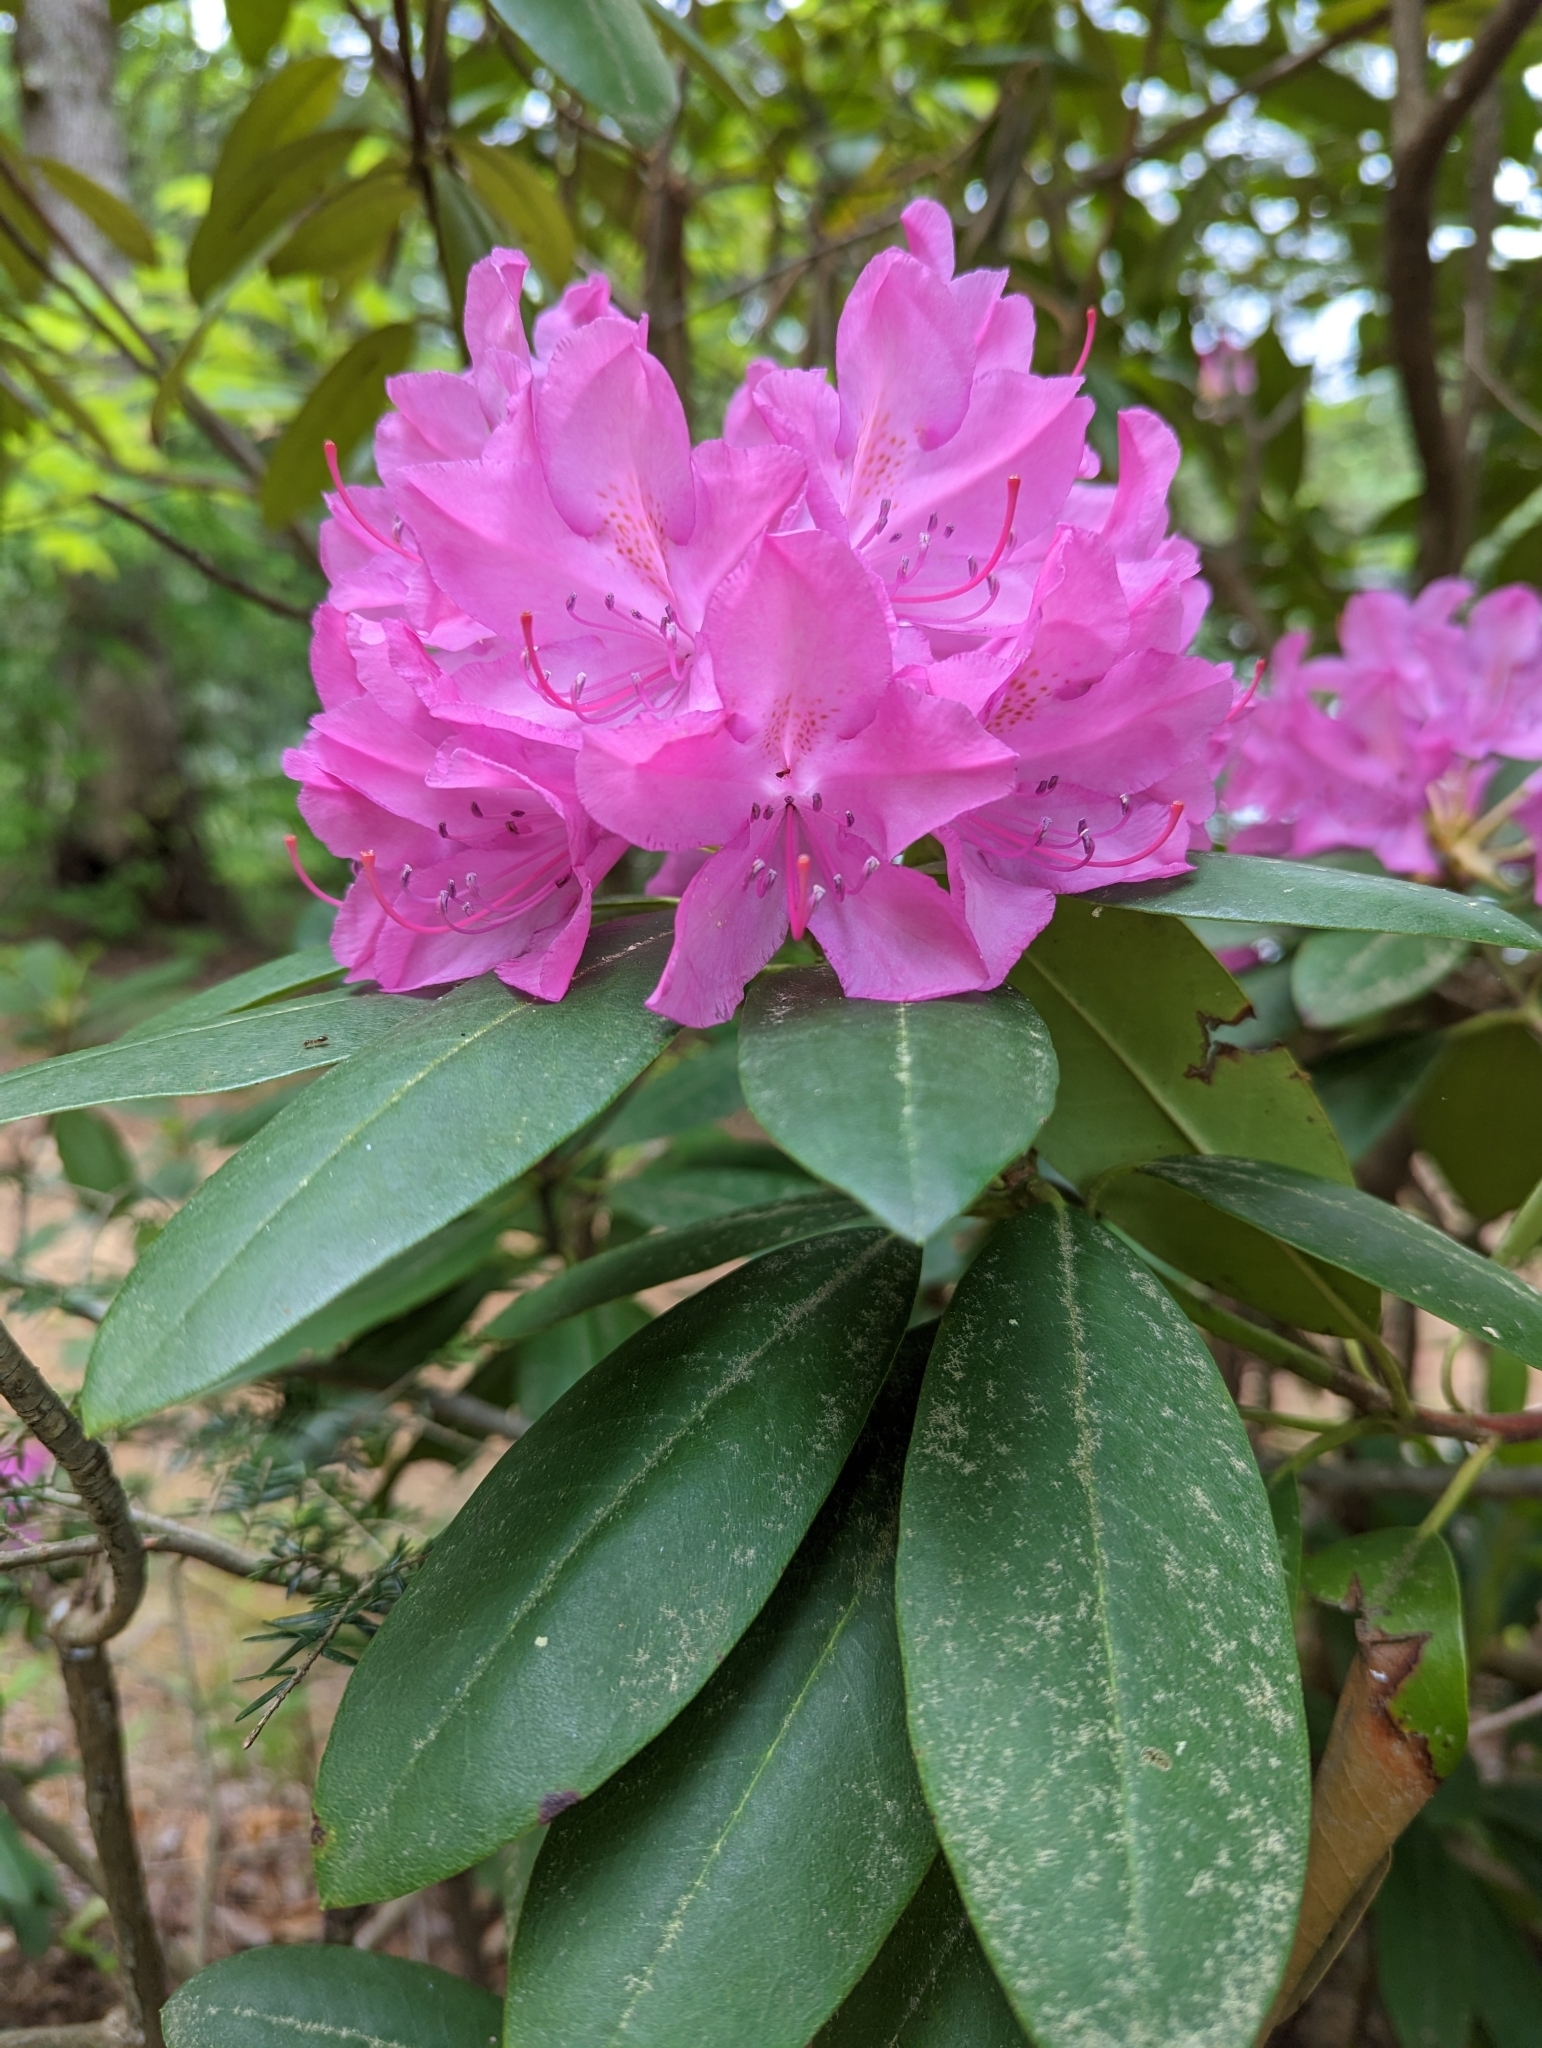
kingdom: Plantae
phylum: Tracheophyta
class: Magnoliopsida
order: Ericales
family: Ericaceae
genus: Rhododendron
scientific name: Rhododendron catawbiense
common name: Catawba rhododendron
